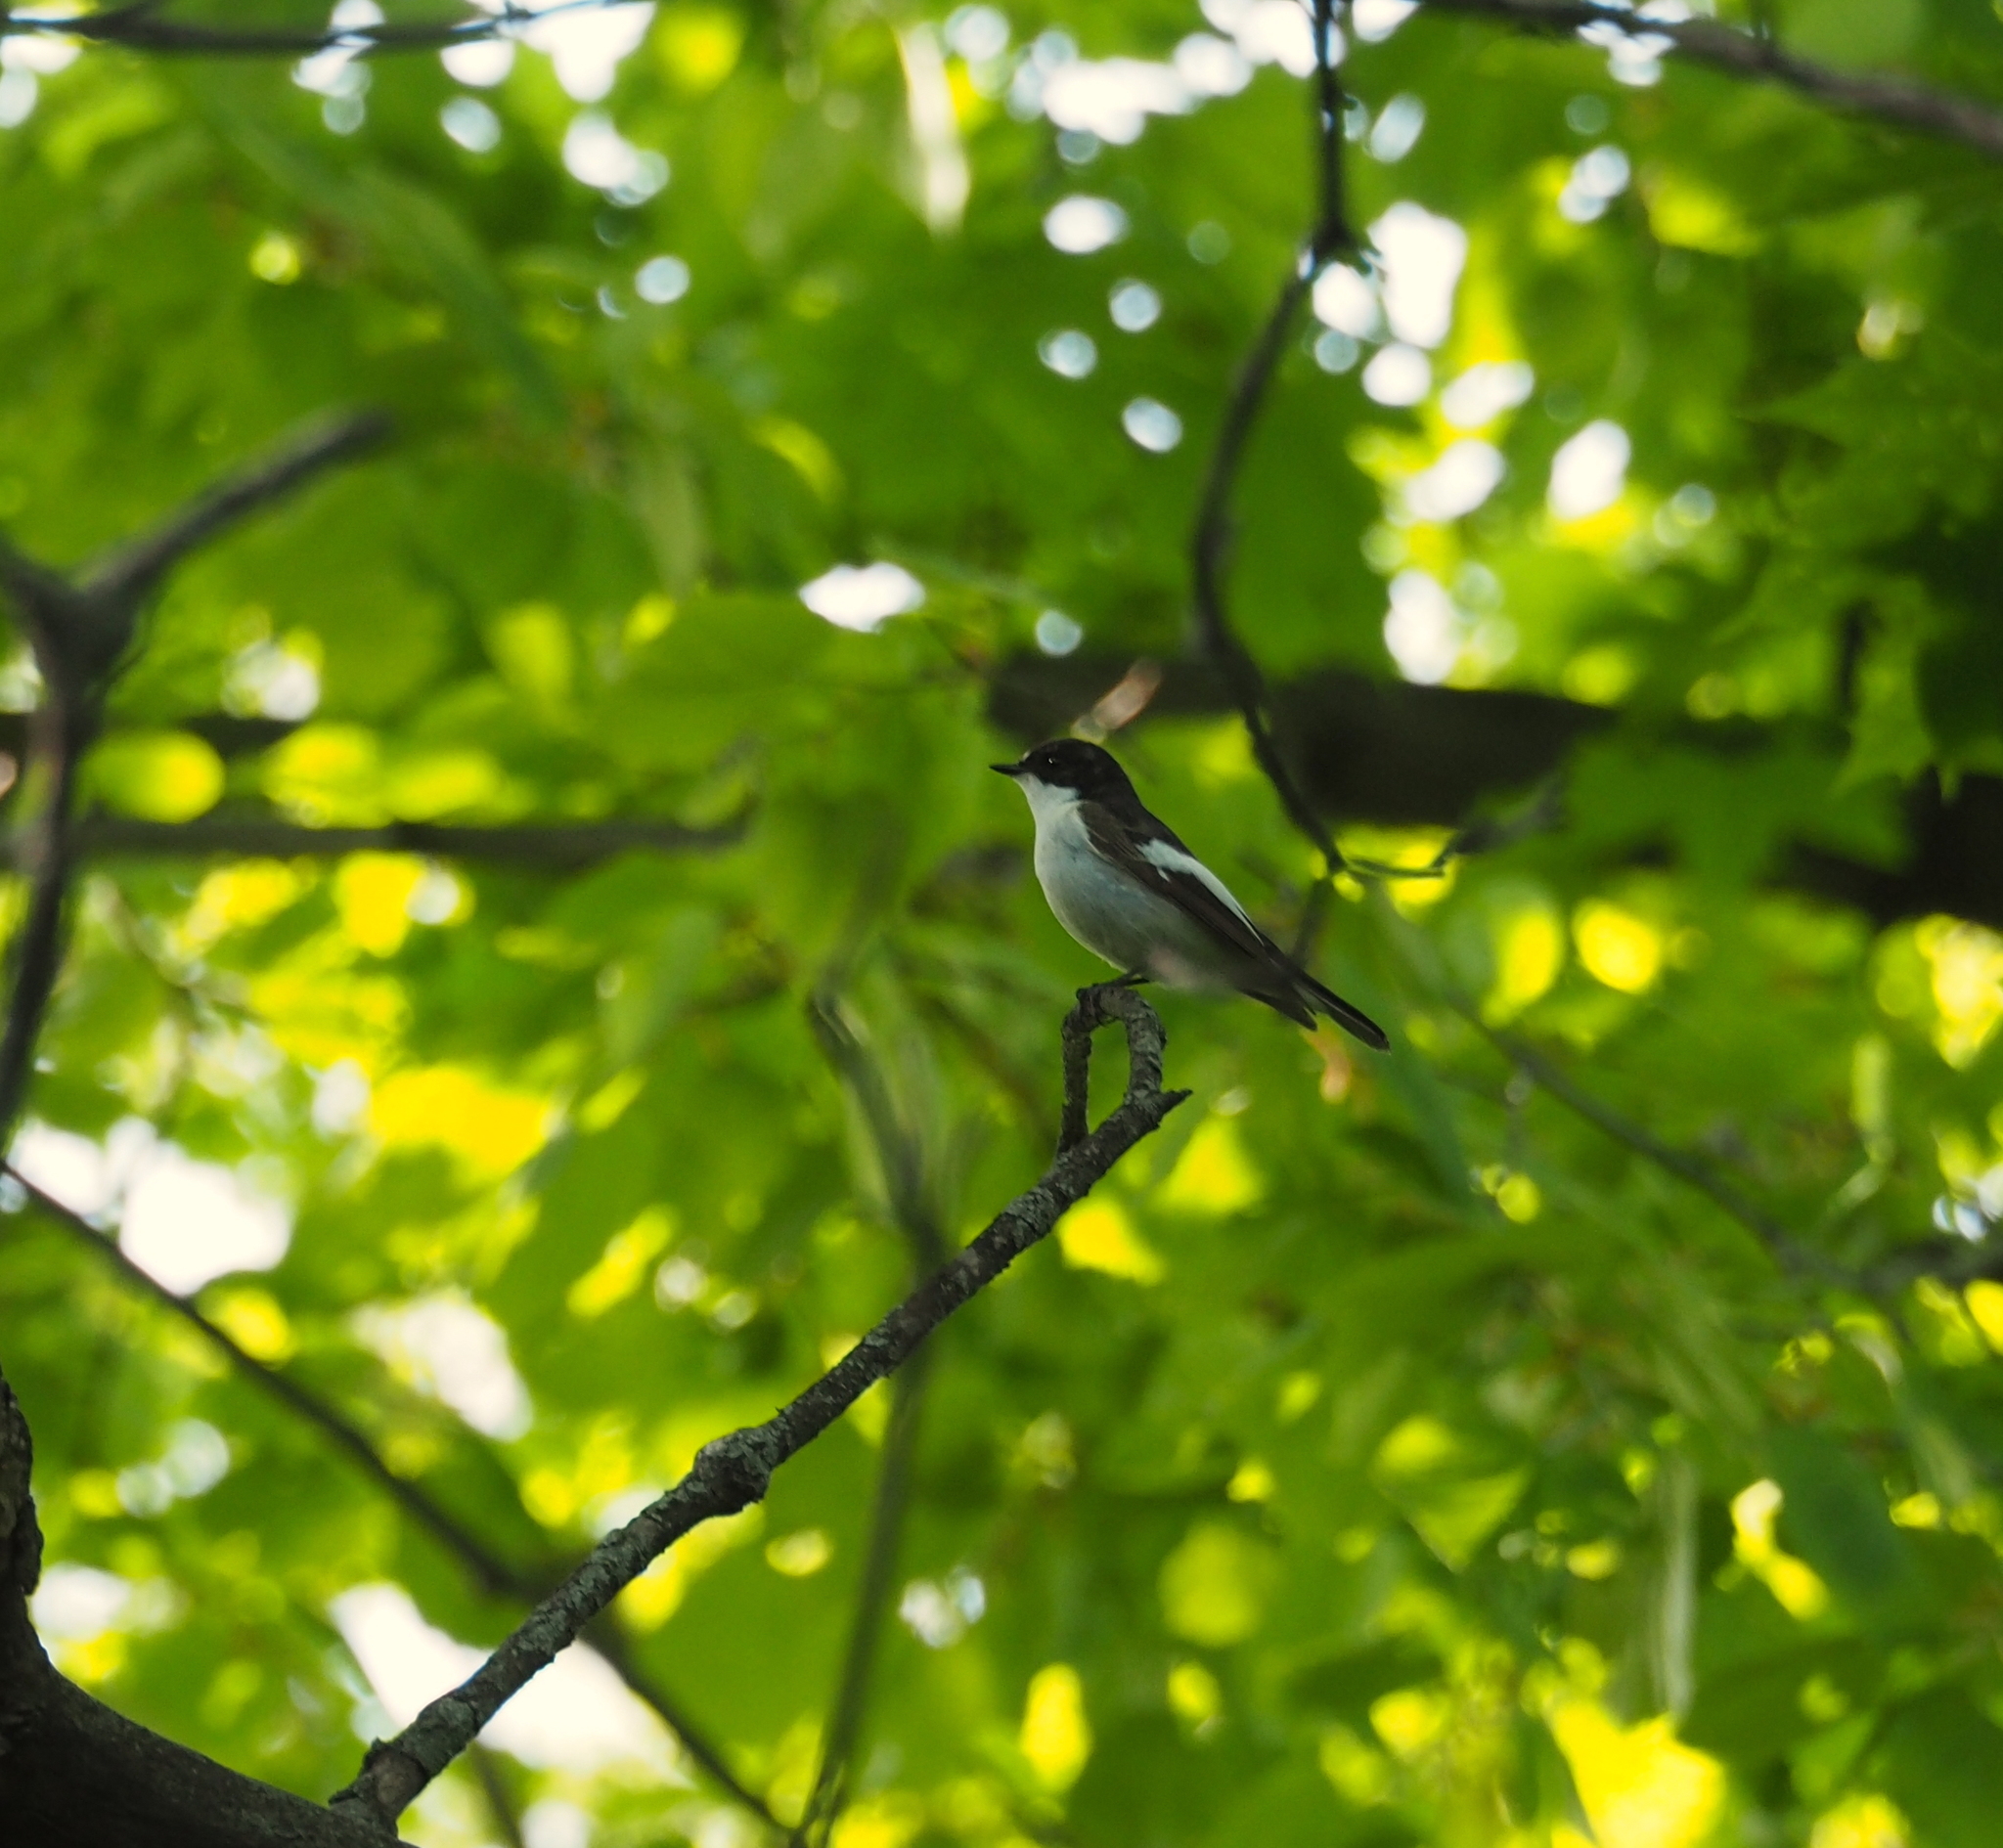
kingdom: Animalia
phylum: Chordata
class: Aves
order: Passeriformes
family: Muscicapidae
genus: Ficedula
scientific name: Ficedula hypoleuca
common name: European pied flycatcher
